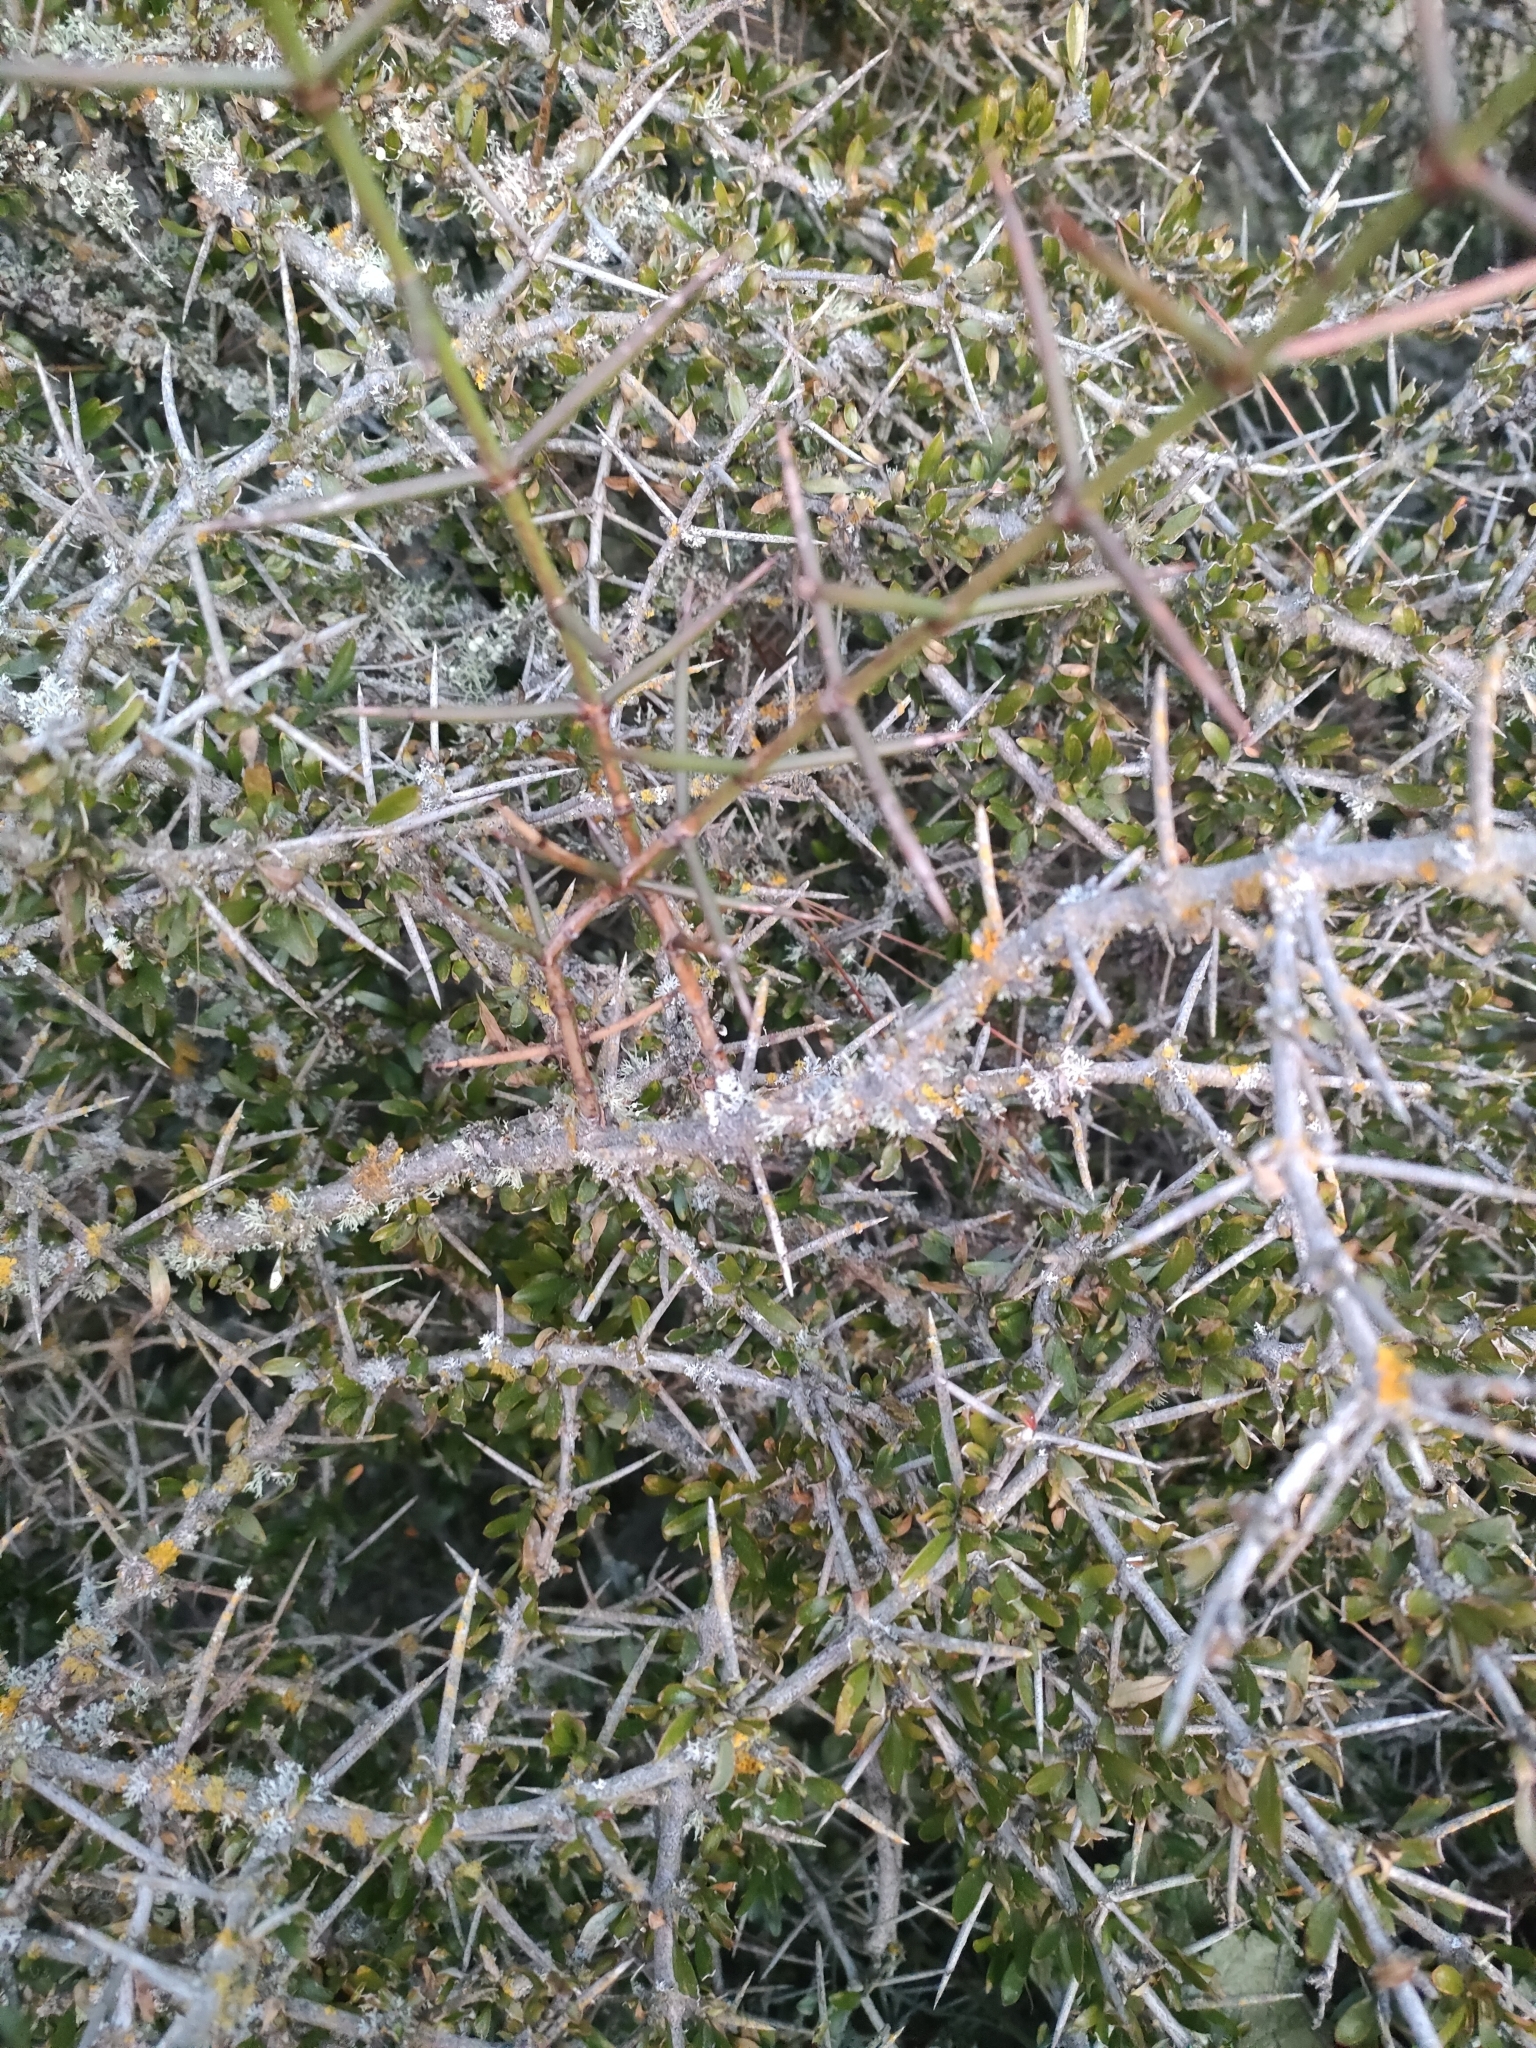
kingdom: Plantae
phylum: Tracheophyta
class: Magnoliopsida
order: Rosales
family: Rhamnaceae
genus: Discaria
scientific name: Discaria toumatou
